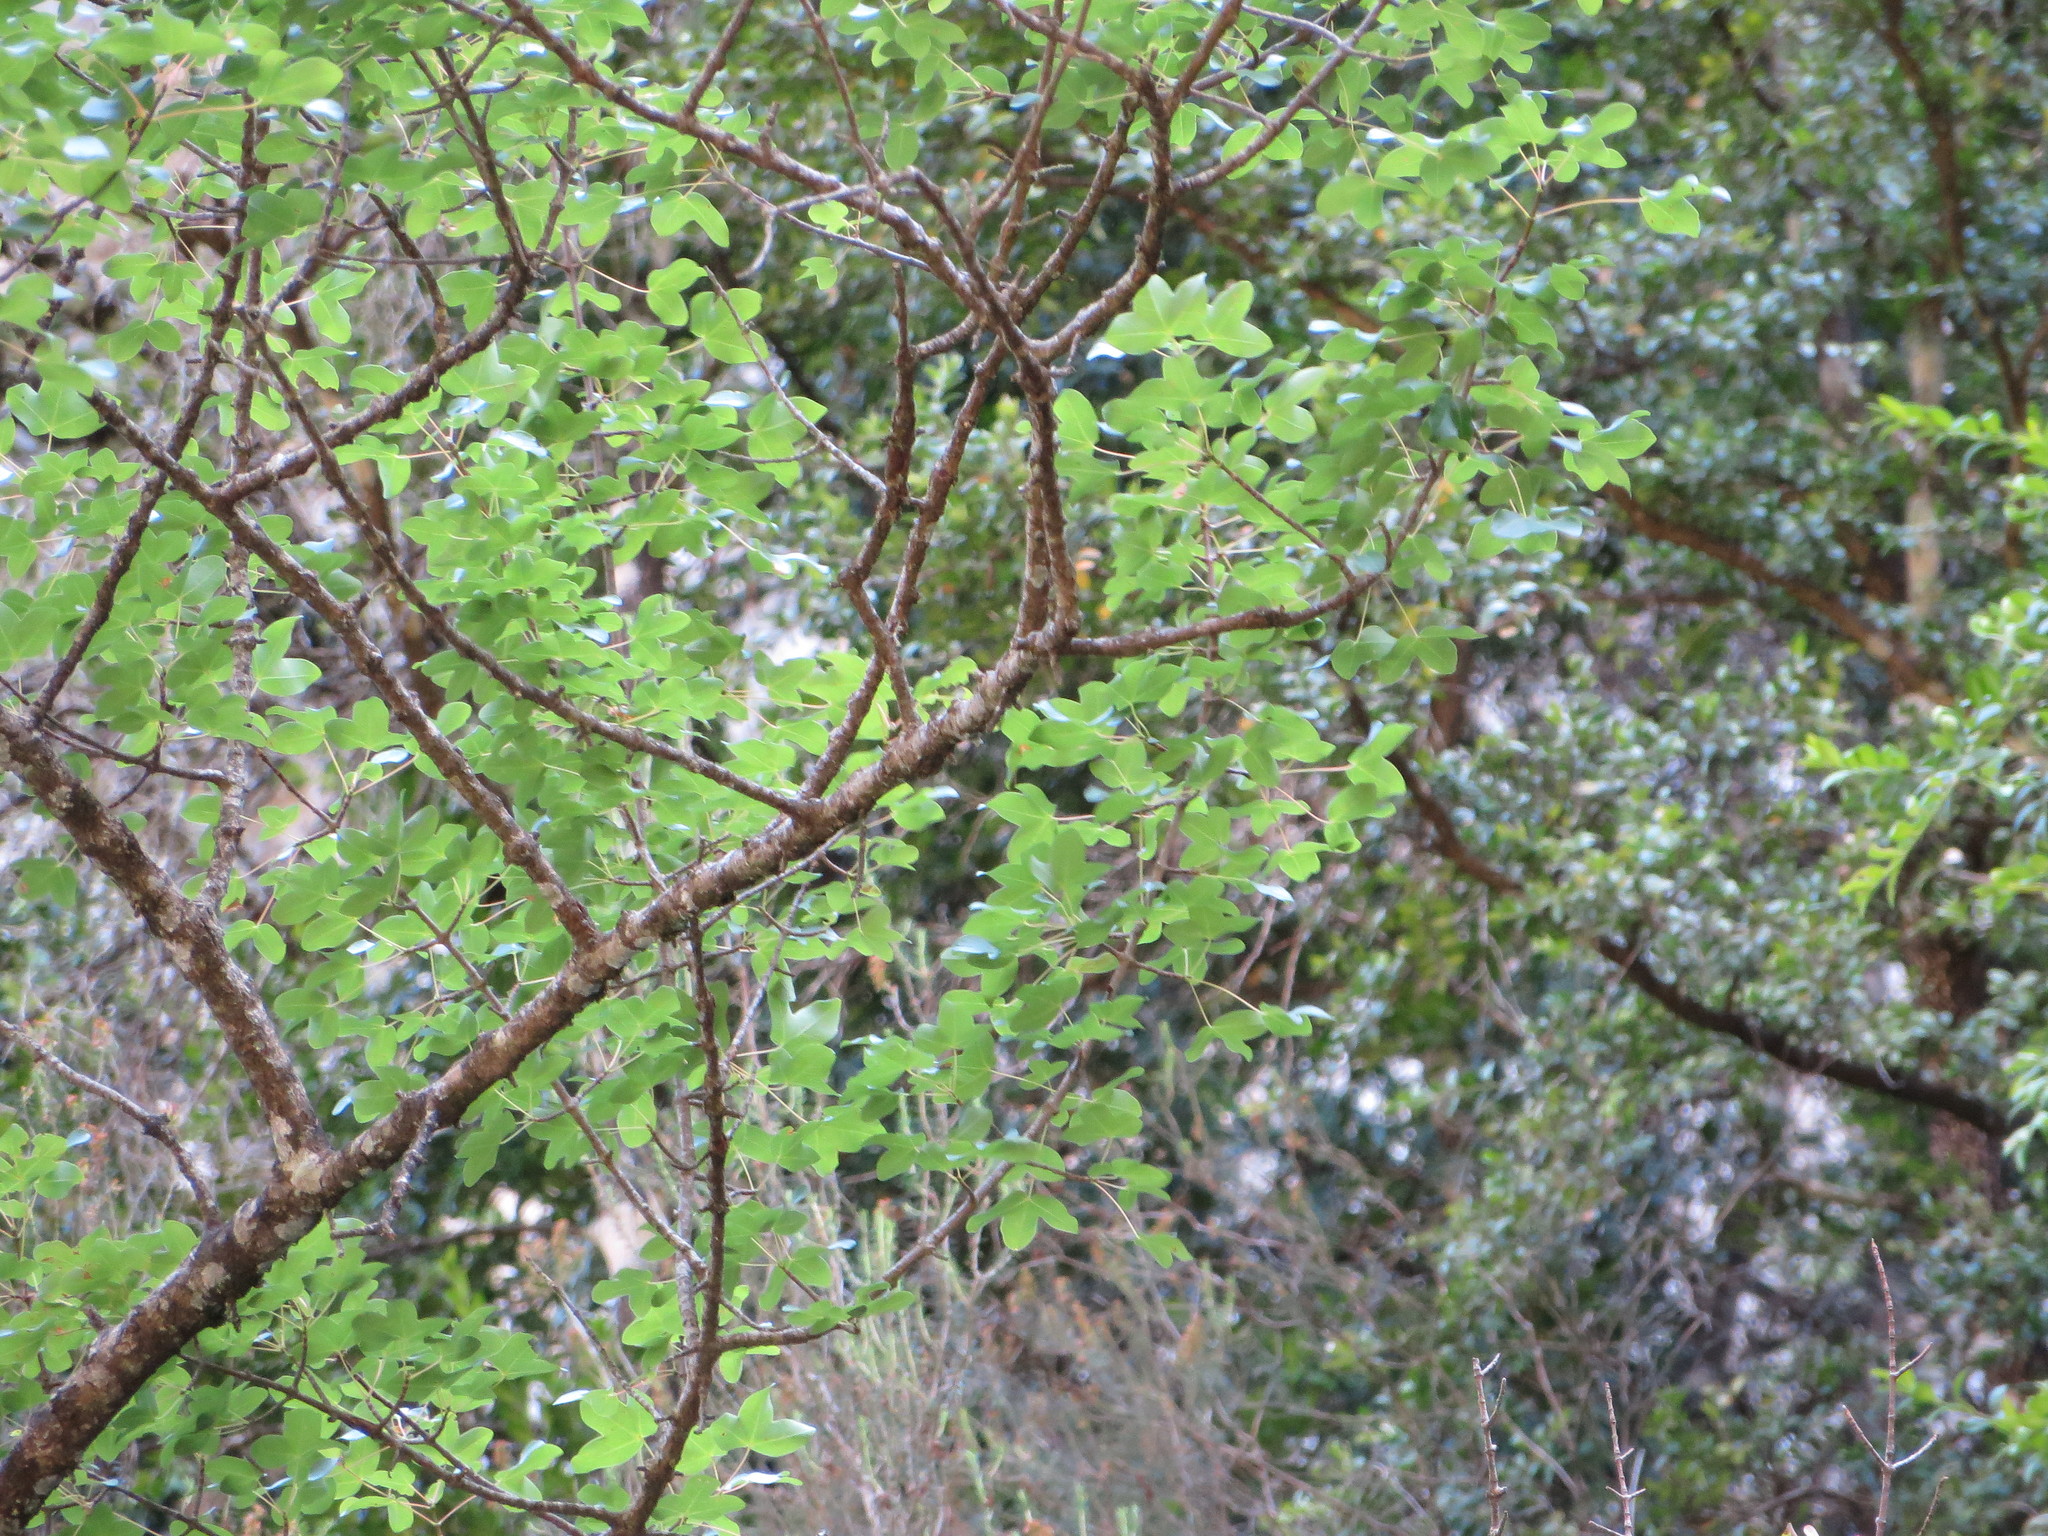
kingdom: Plantae
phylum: Tracheophyta
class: Magnoliopsida
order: Sapindales
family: Sapindaceae
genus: Acer
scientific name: Acer monspessulanum
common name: Montpellier maple
